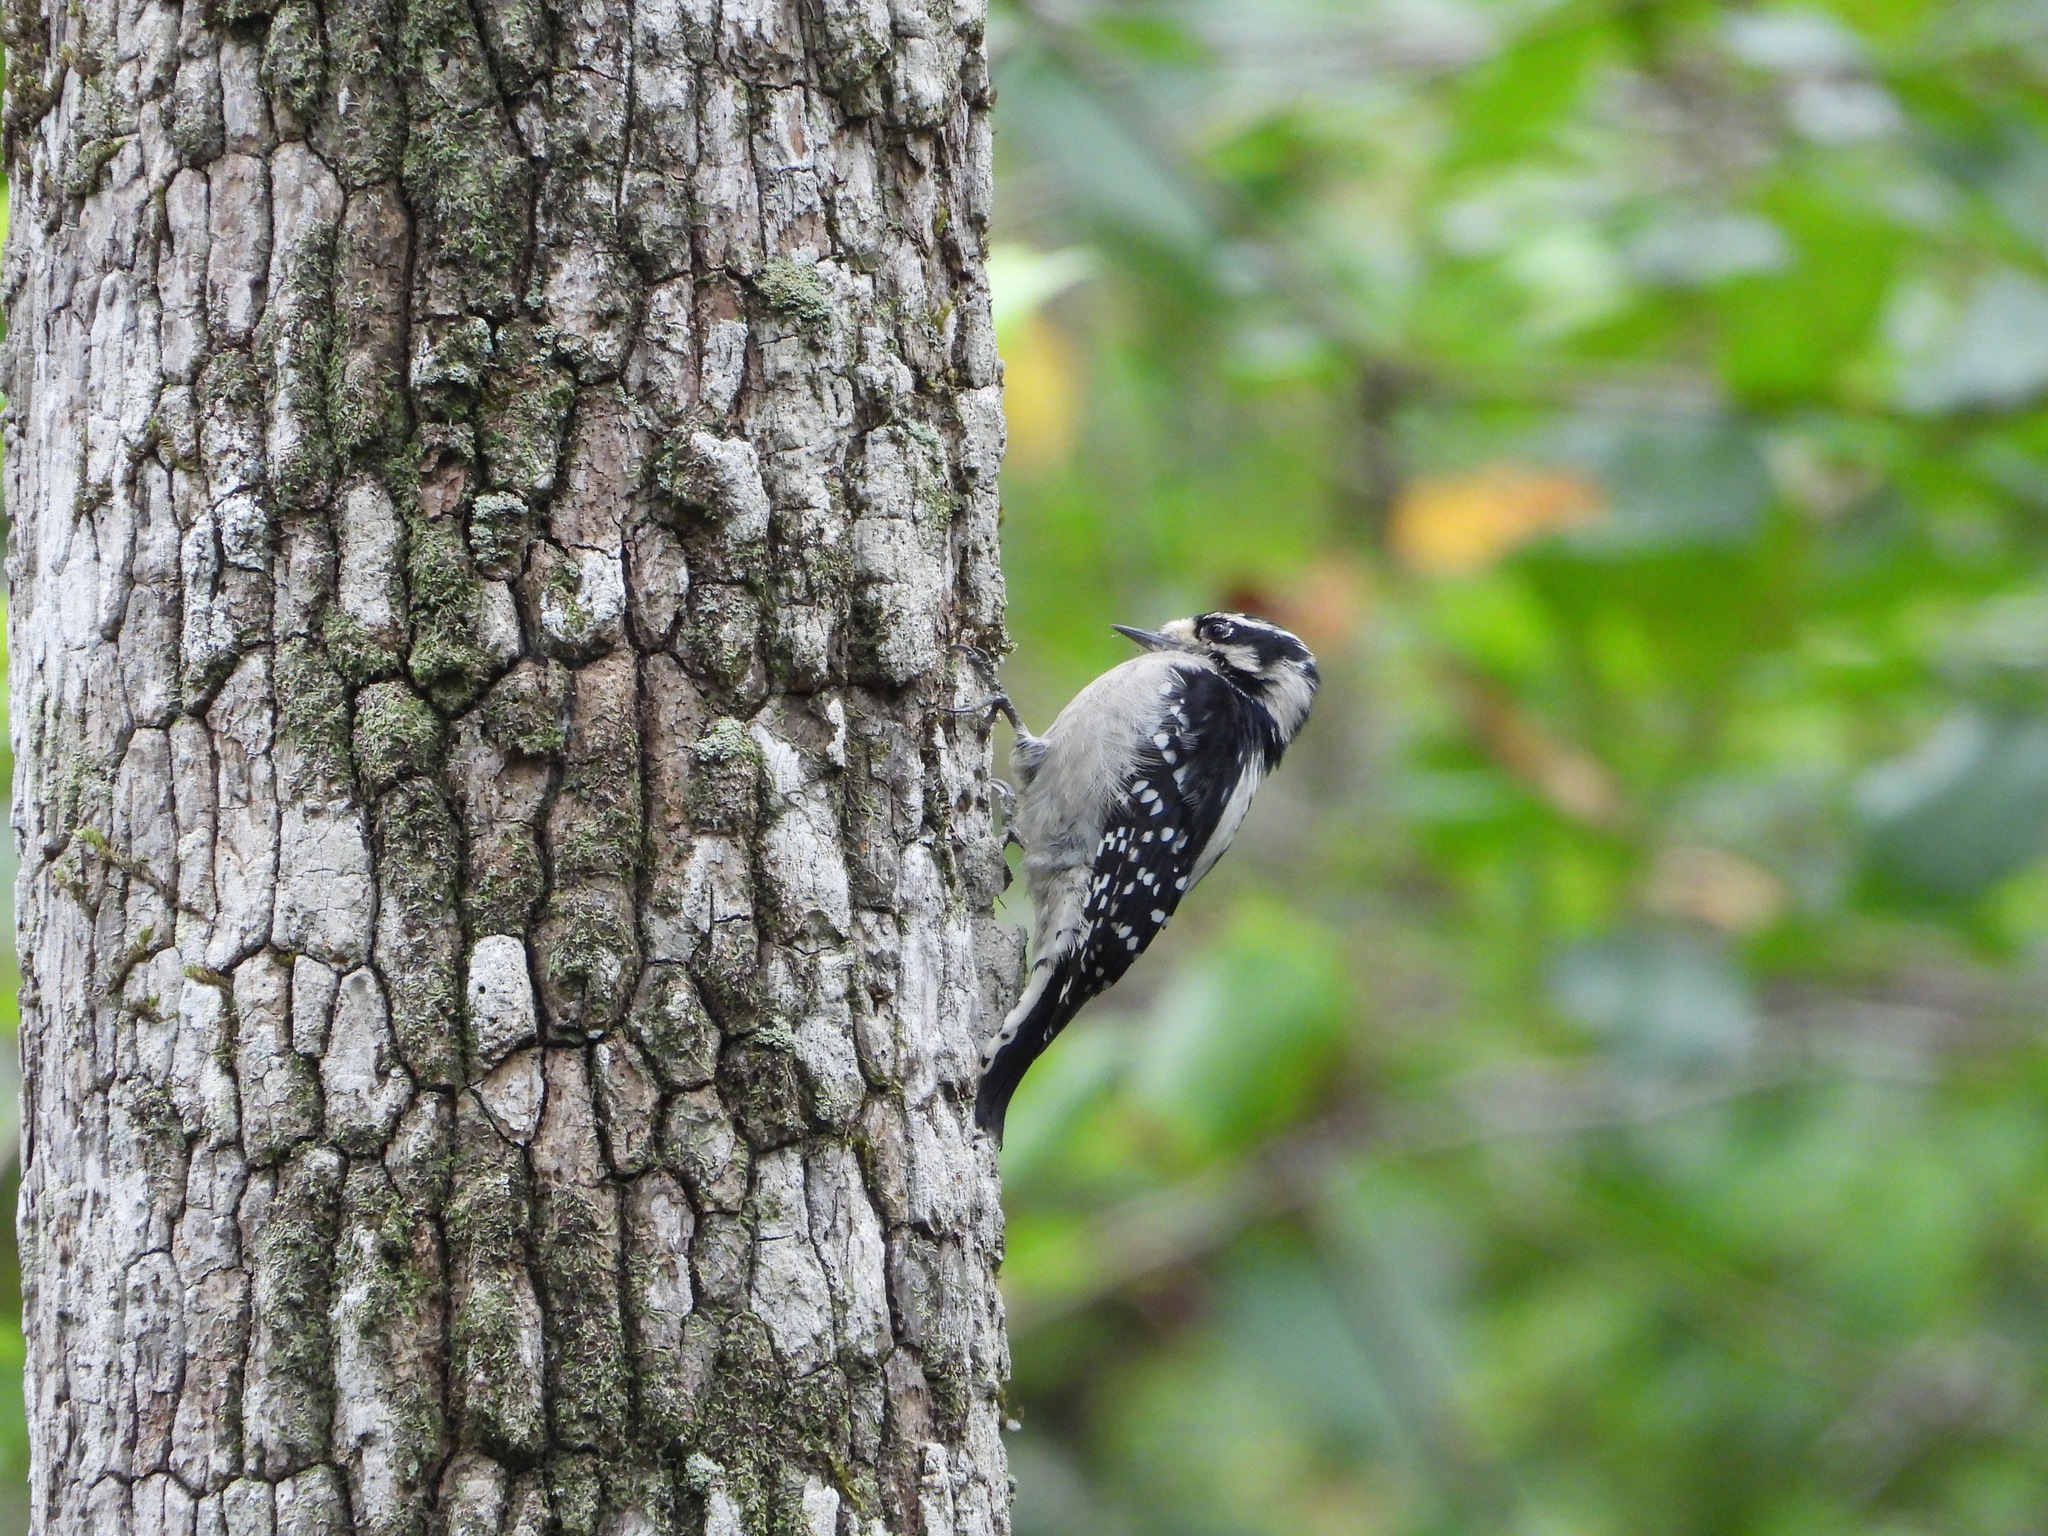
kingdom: Animalia
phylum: Chordata
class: Aves
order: Piciformes
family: Picidae
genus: Dryobates
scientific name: Dryobates pubescens
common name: Downy woodpecker
